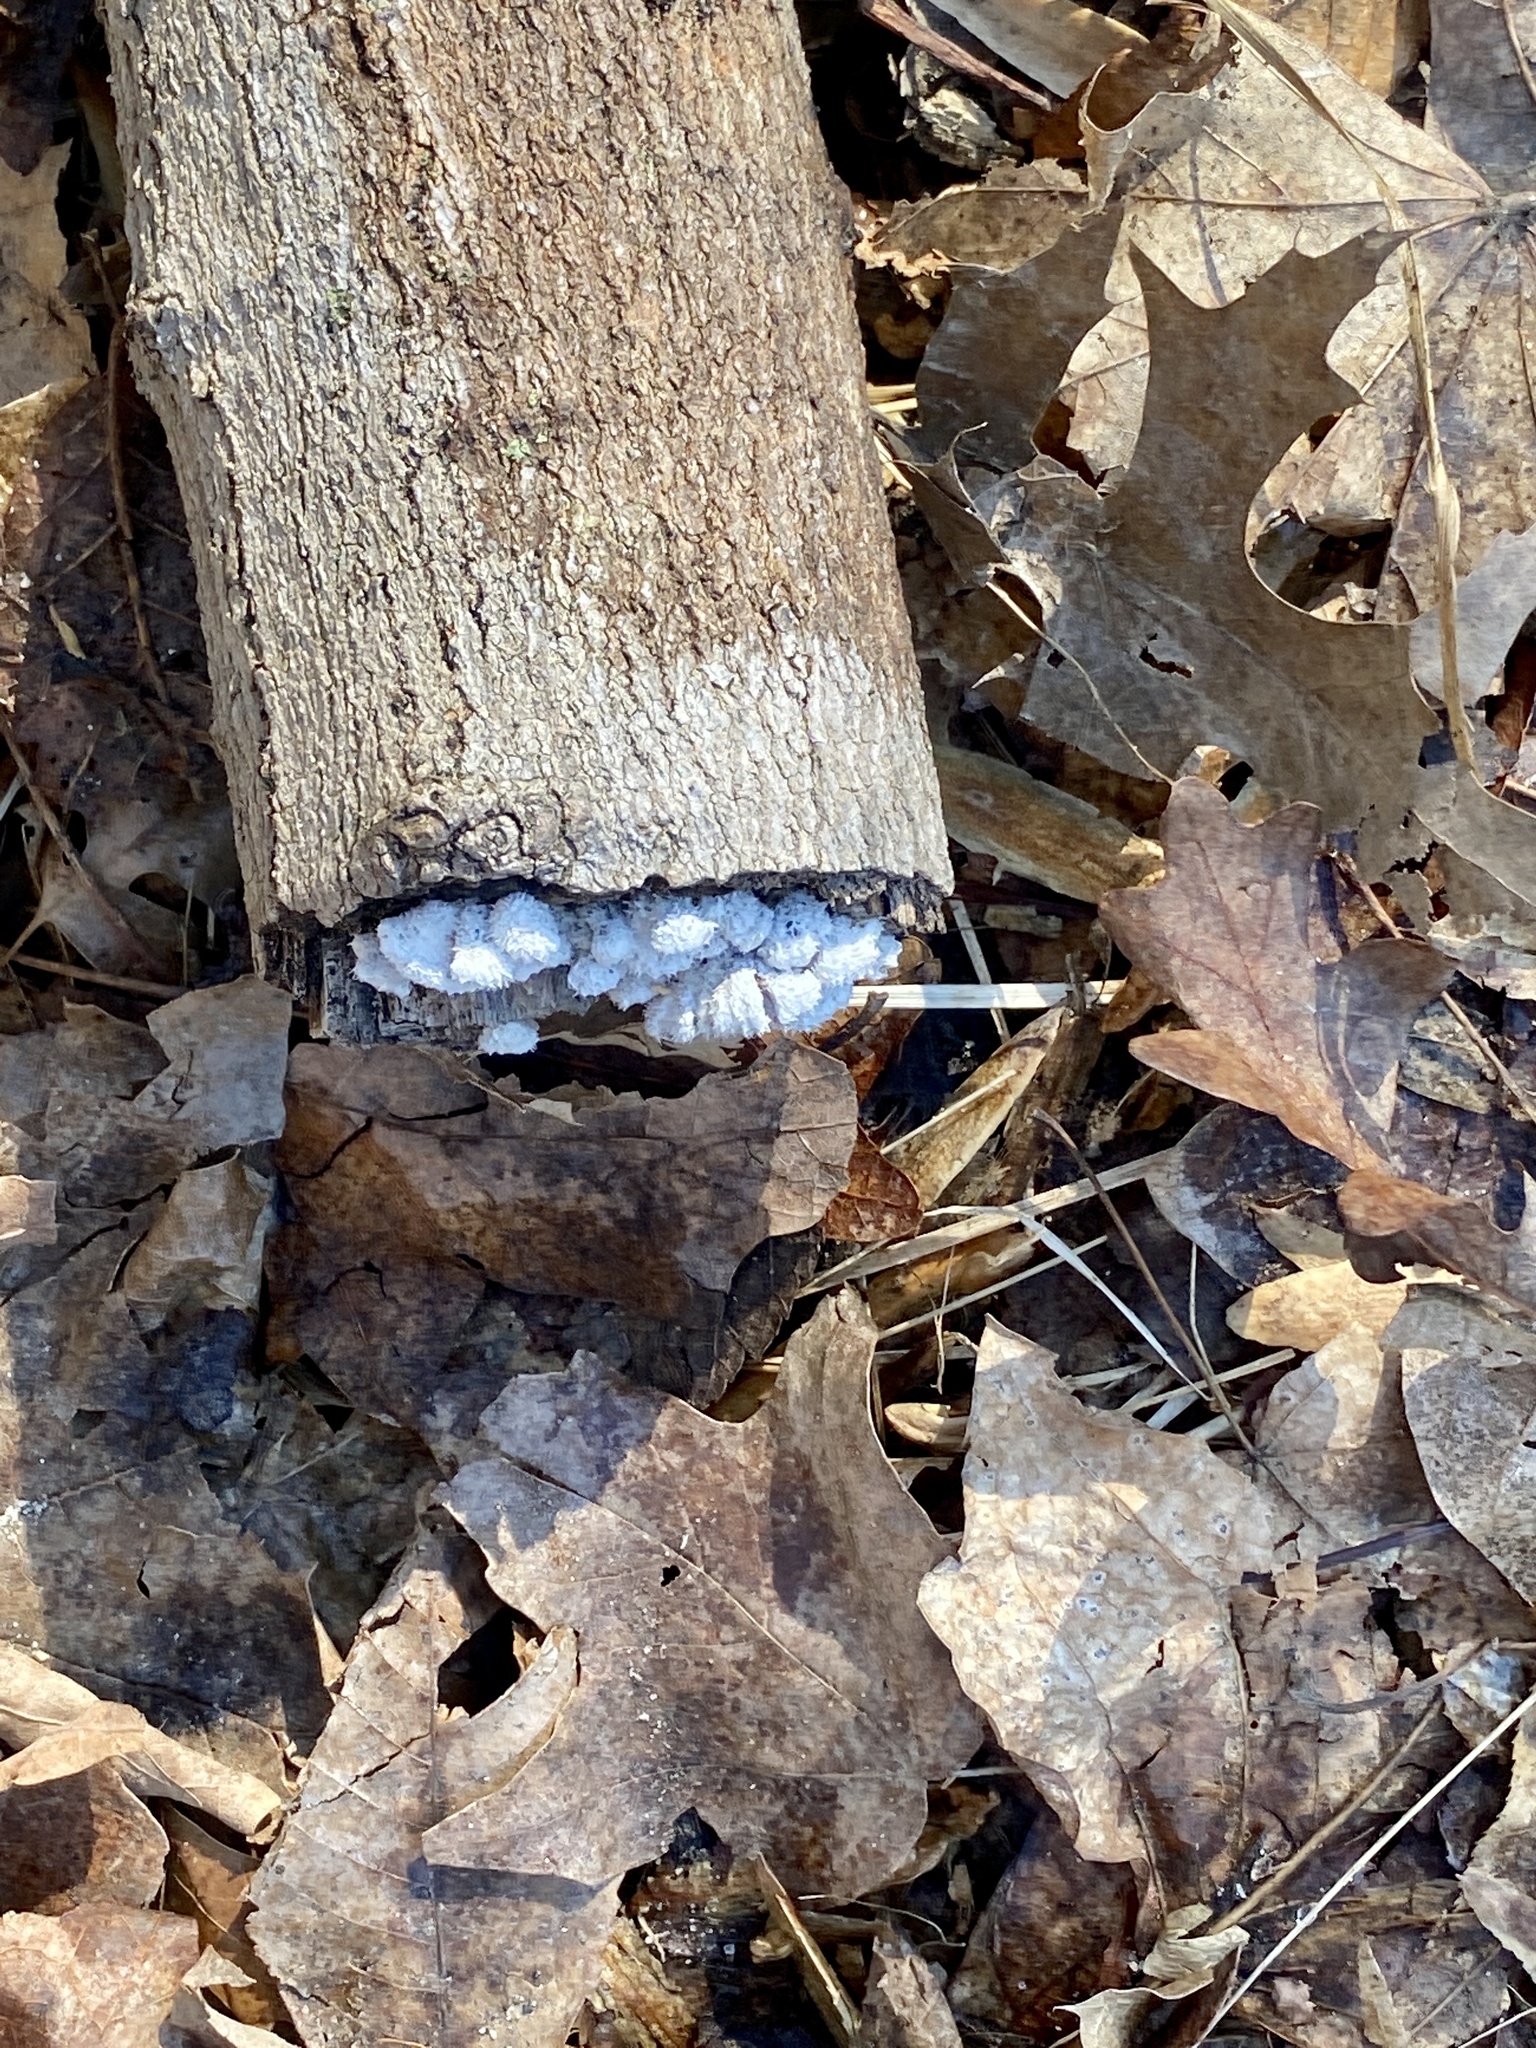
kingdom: Fungi
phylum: Basidiomycota
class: Agaricomycetes
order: Agaricales
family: Schizophyllaceae
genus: Schizophyllum
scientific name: Schizophyllum commune
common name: Common porecrust
